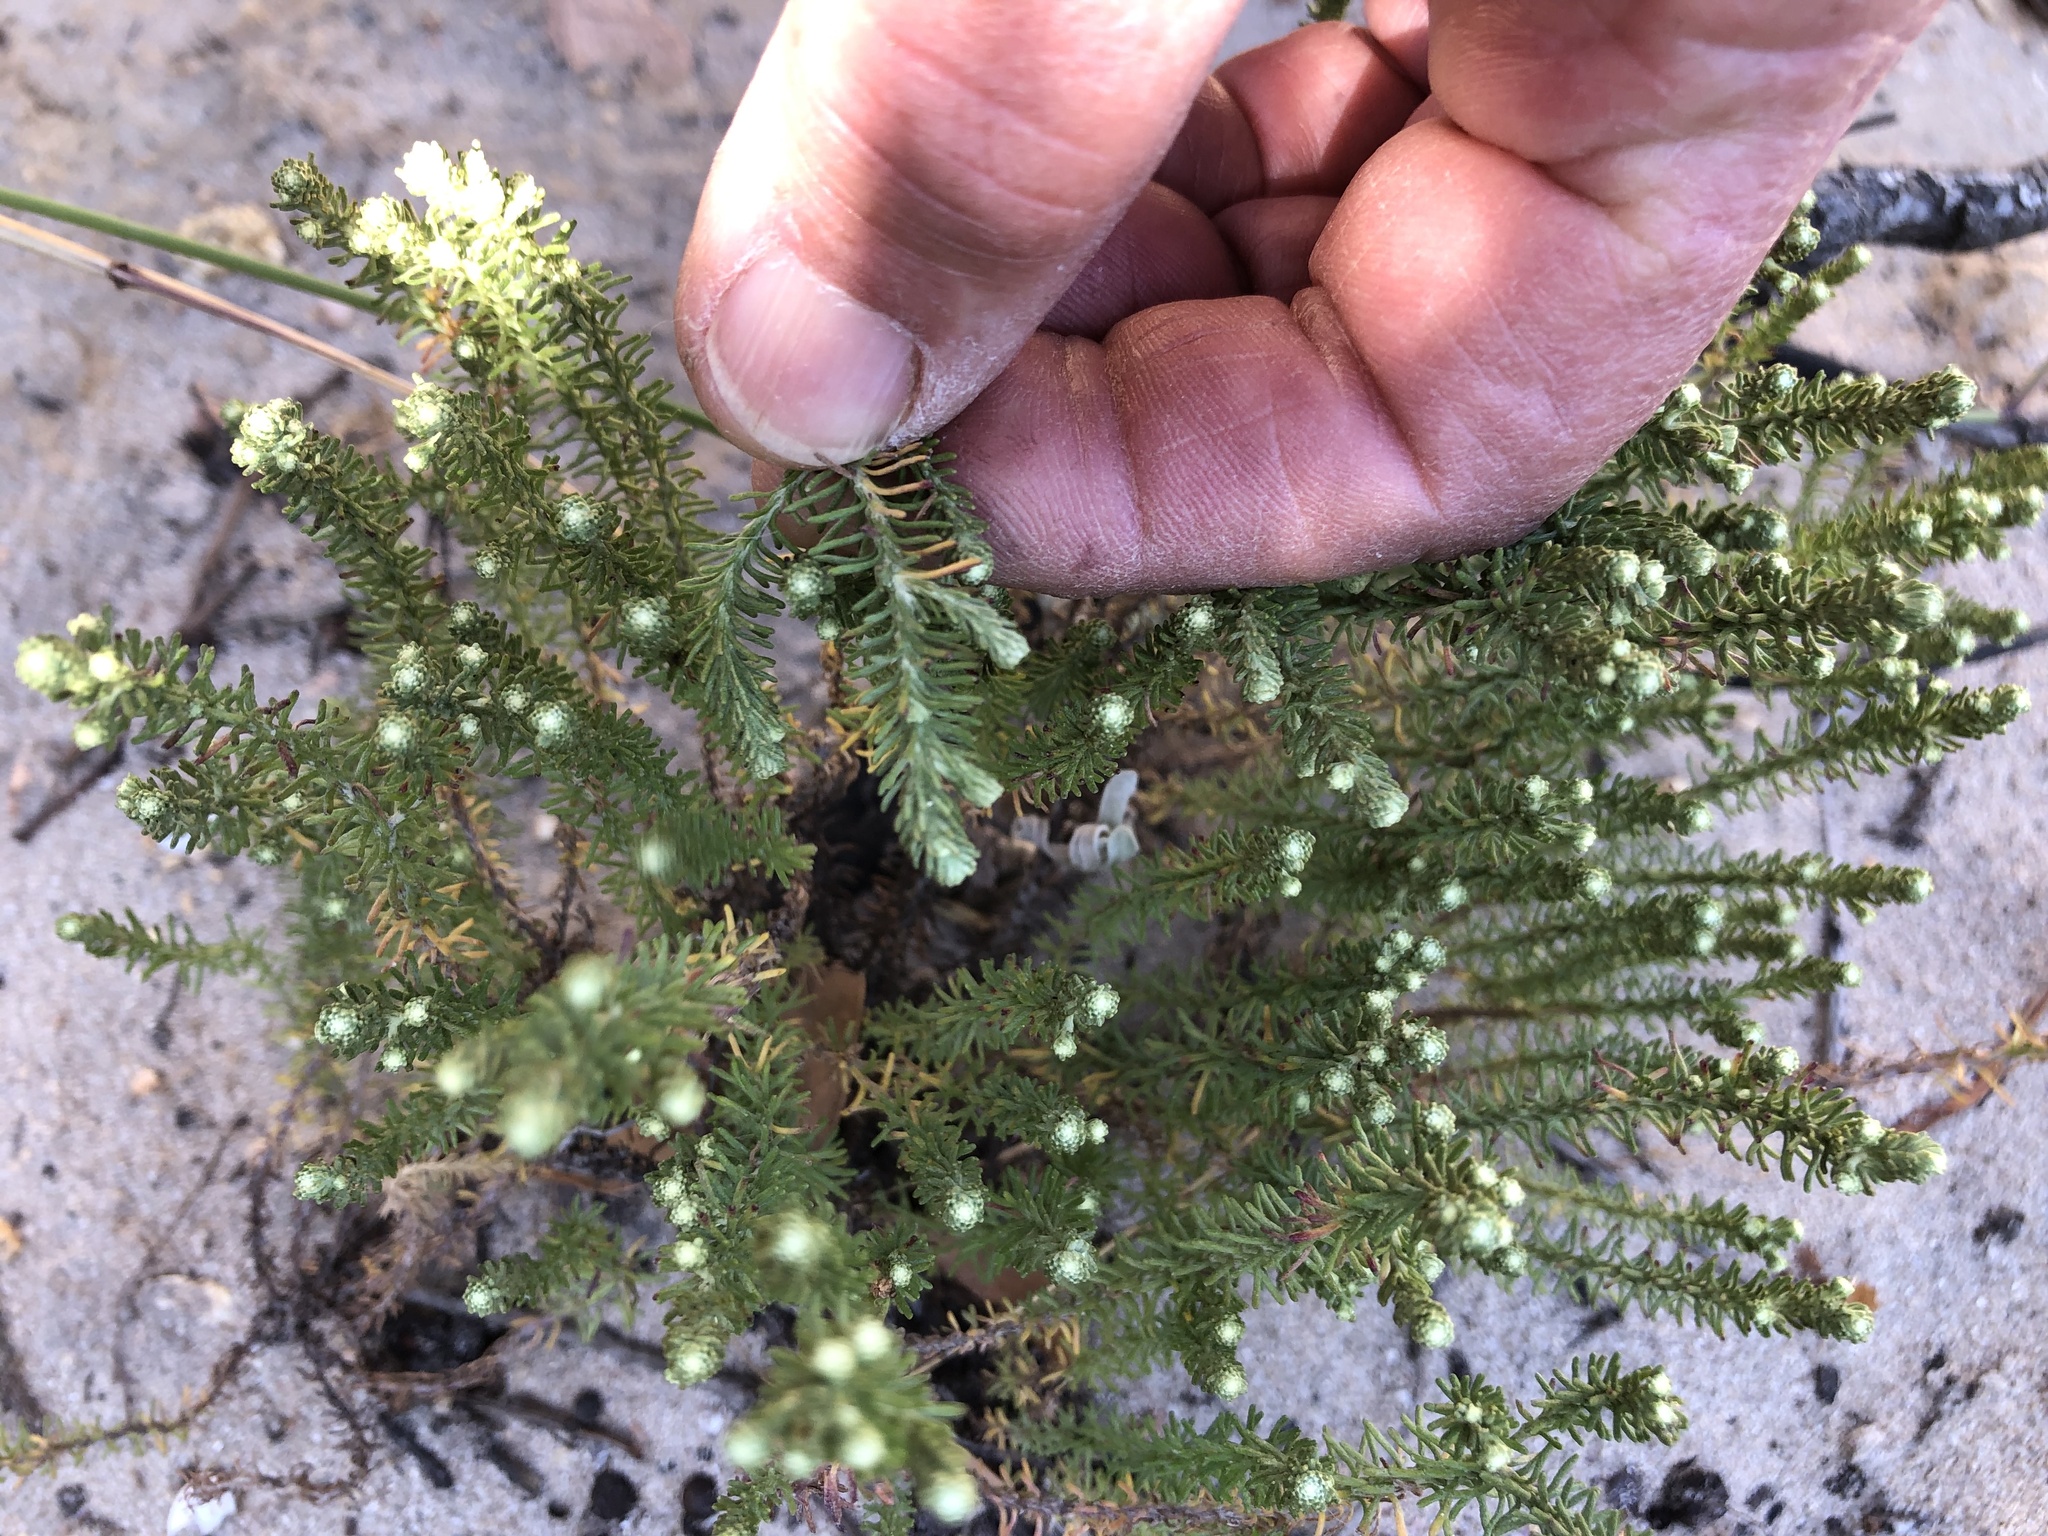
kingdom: Plantae
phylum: Tracheophyta
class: Magnoliopsida
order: Asterales
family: Asteraceae
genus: Helichrysum
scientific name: Helichrysum niveum
